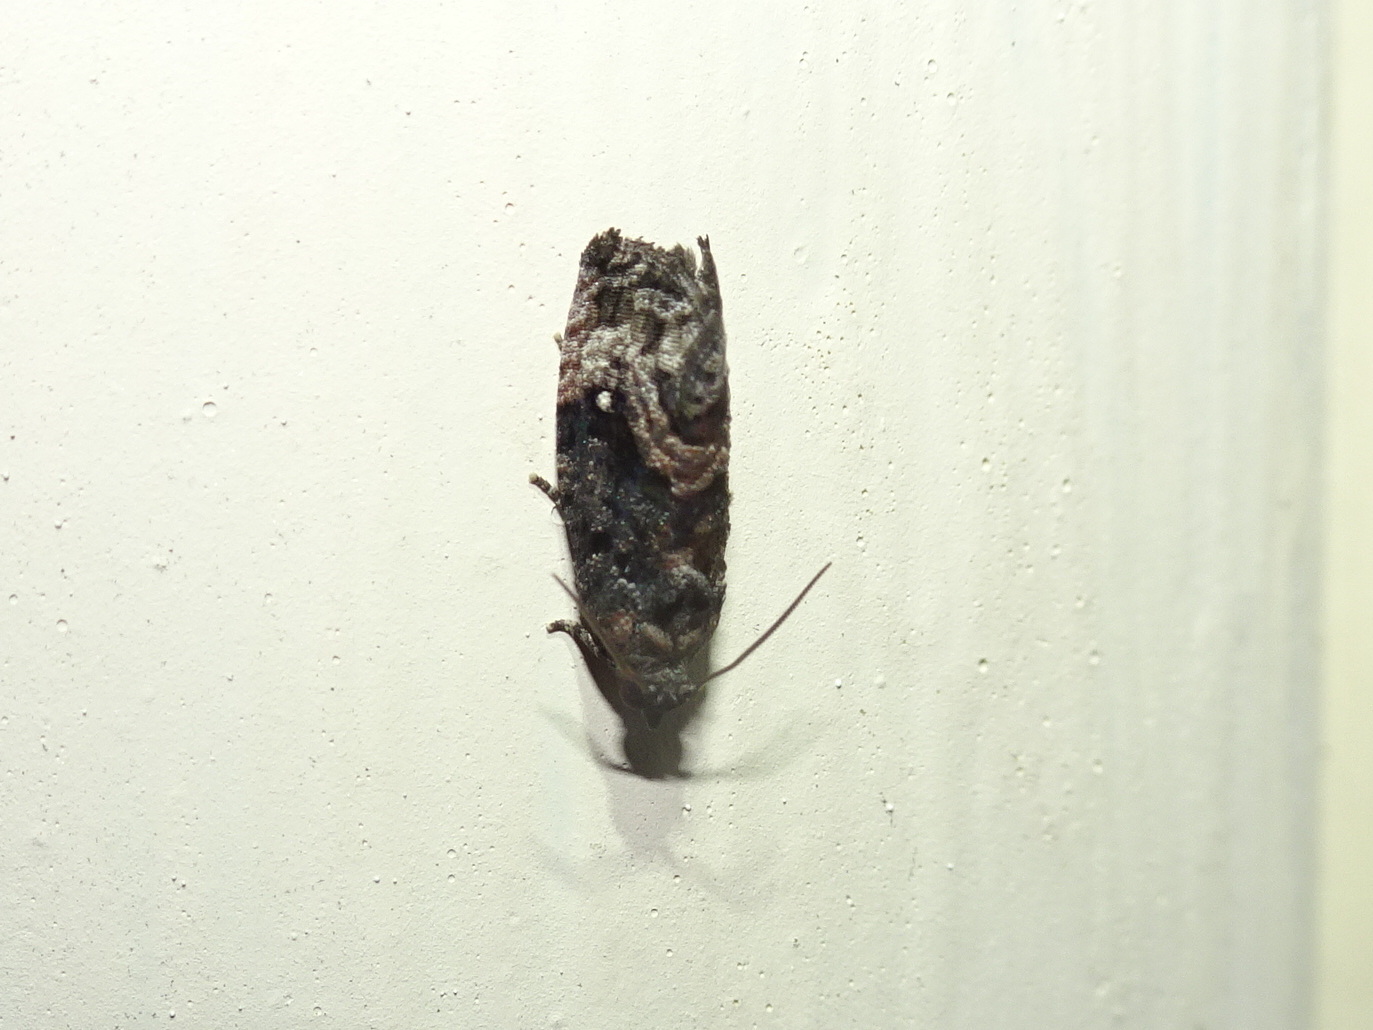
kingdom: Animalia
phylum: Arthropoda
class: Insecta
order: Lepidoptera
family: Tortricidae
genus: Gymnandrosoma
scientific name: Gymnandrosoma punctidiscanum
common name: Dotted ecdytolopha moth
